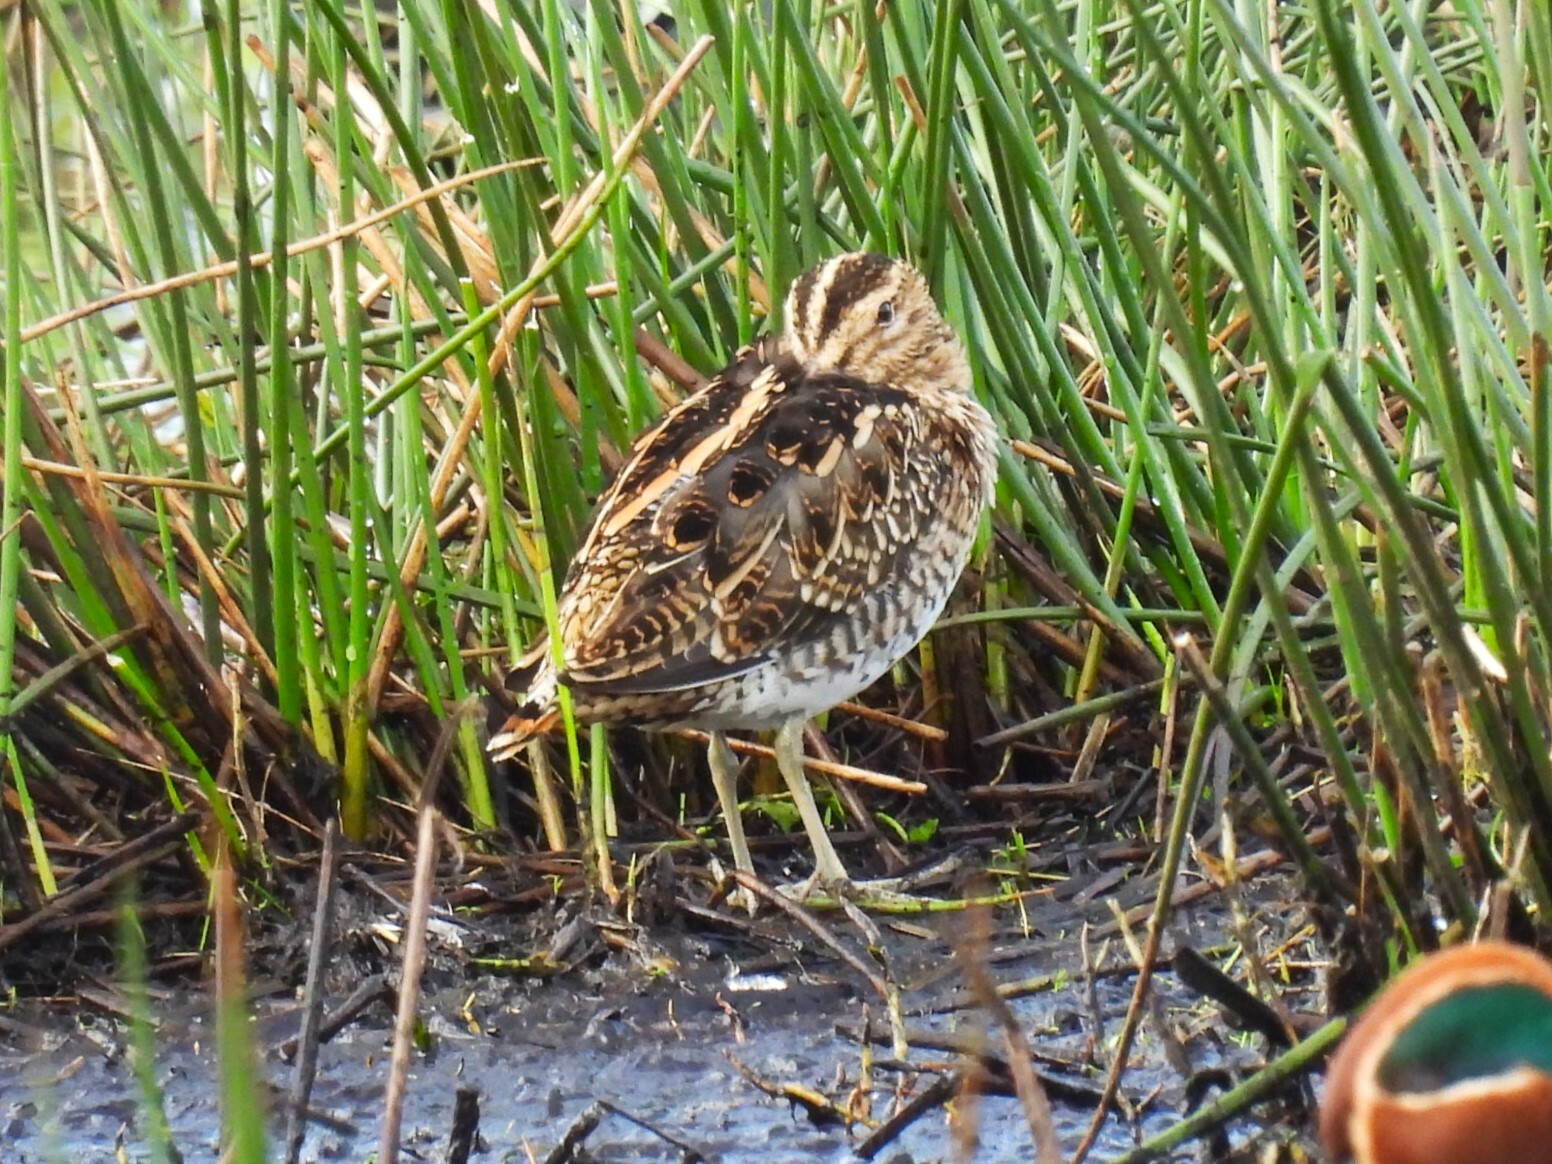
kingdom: Animalia
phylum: Chordata
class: Aves
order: Charadriiformes
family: Scolopacidae
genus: Gallinago
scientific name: Gallinago gallinago
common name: Common snipe
